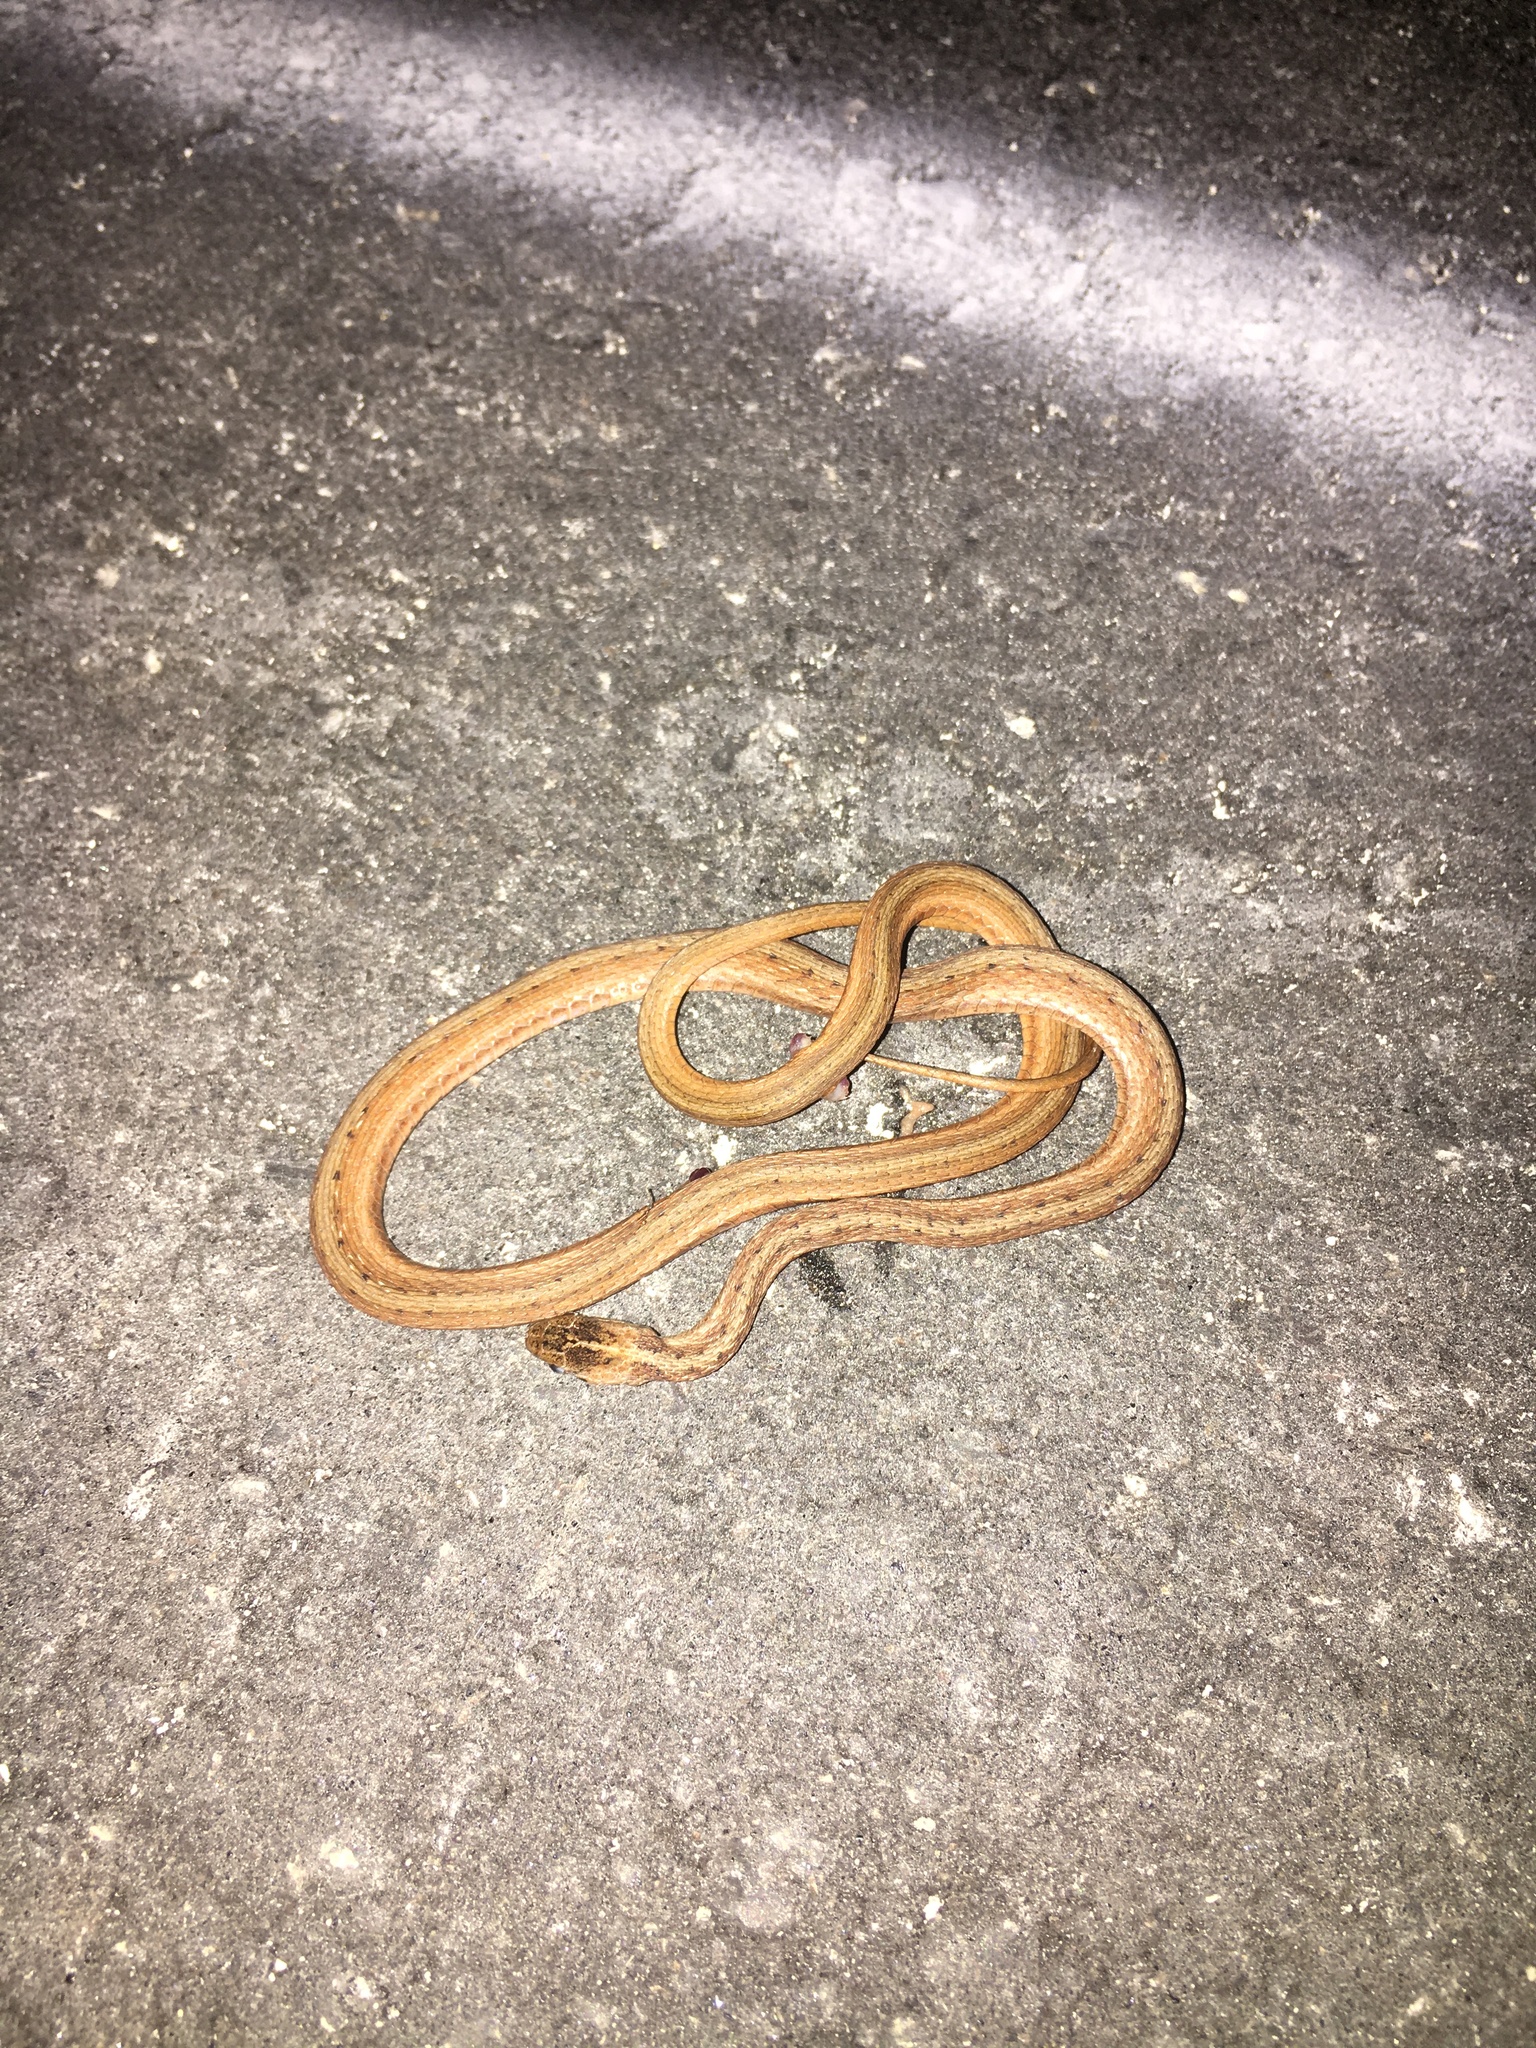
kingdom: Animalia
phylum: Chordata
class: Squamata
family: Colubridae
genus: Storeria
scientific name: Storeria victa
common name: Florida brown snake
